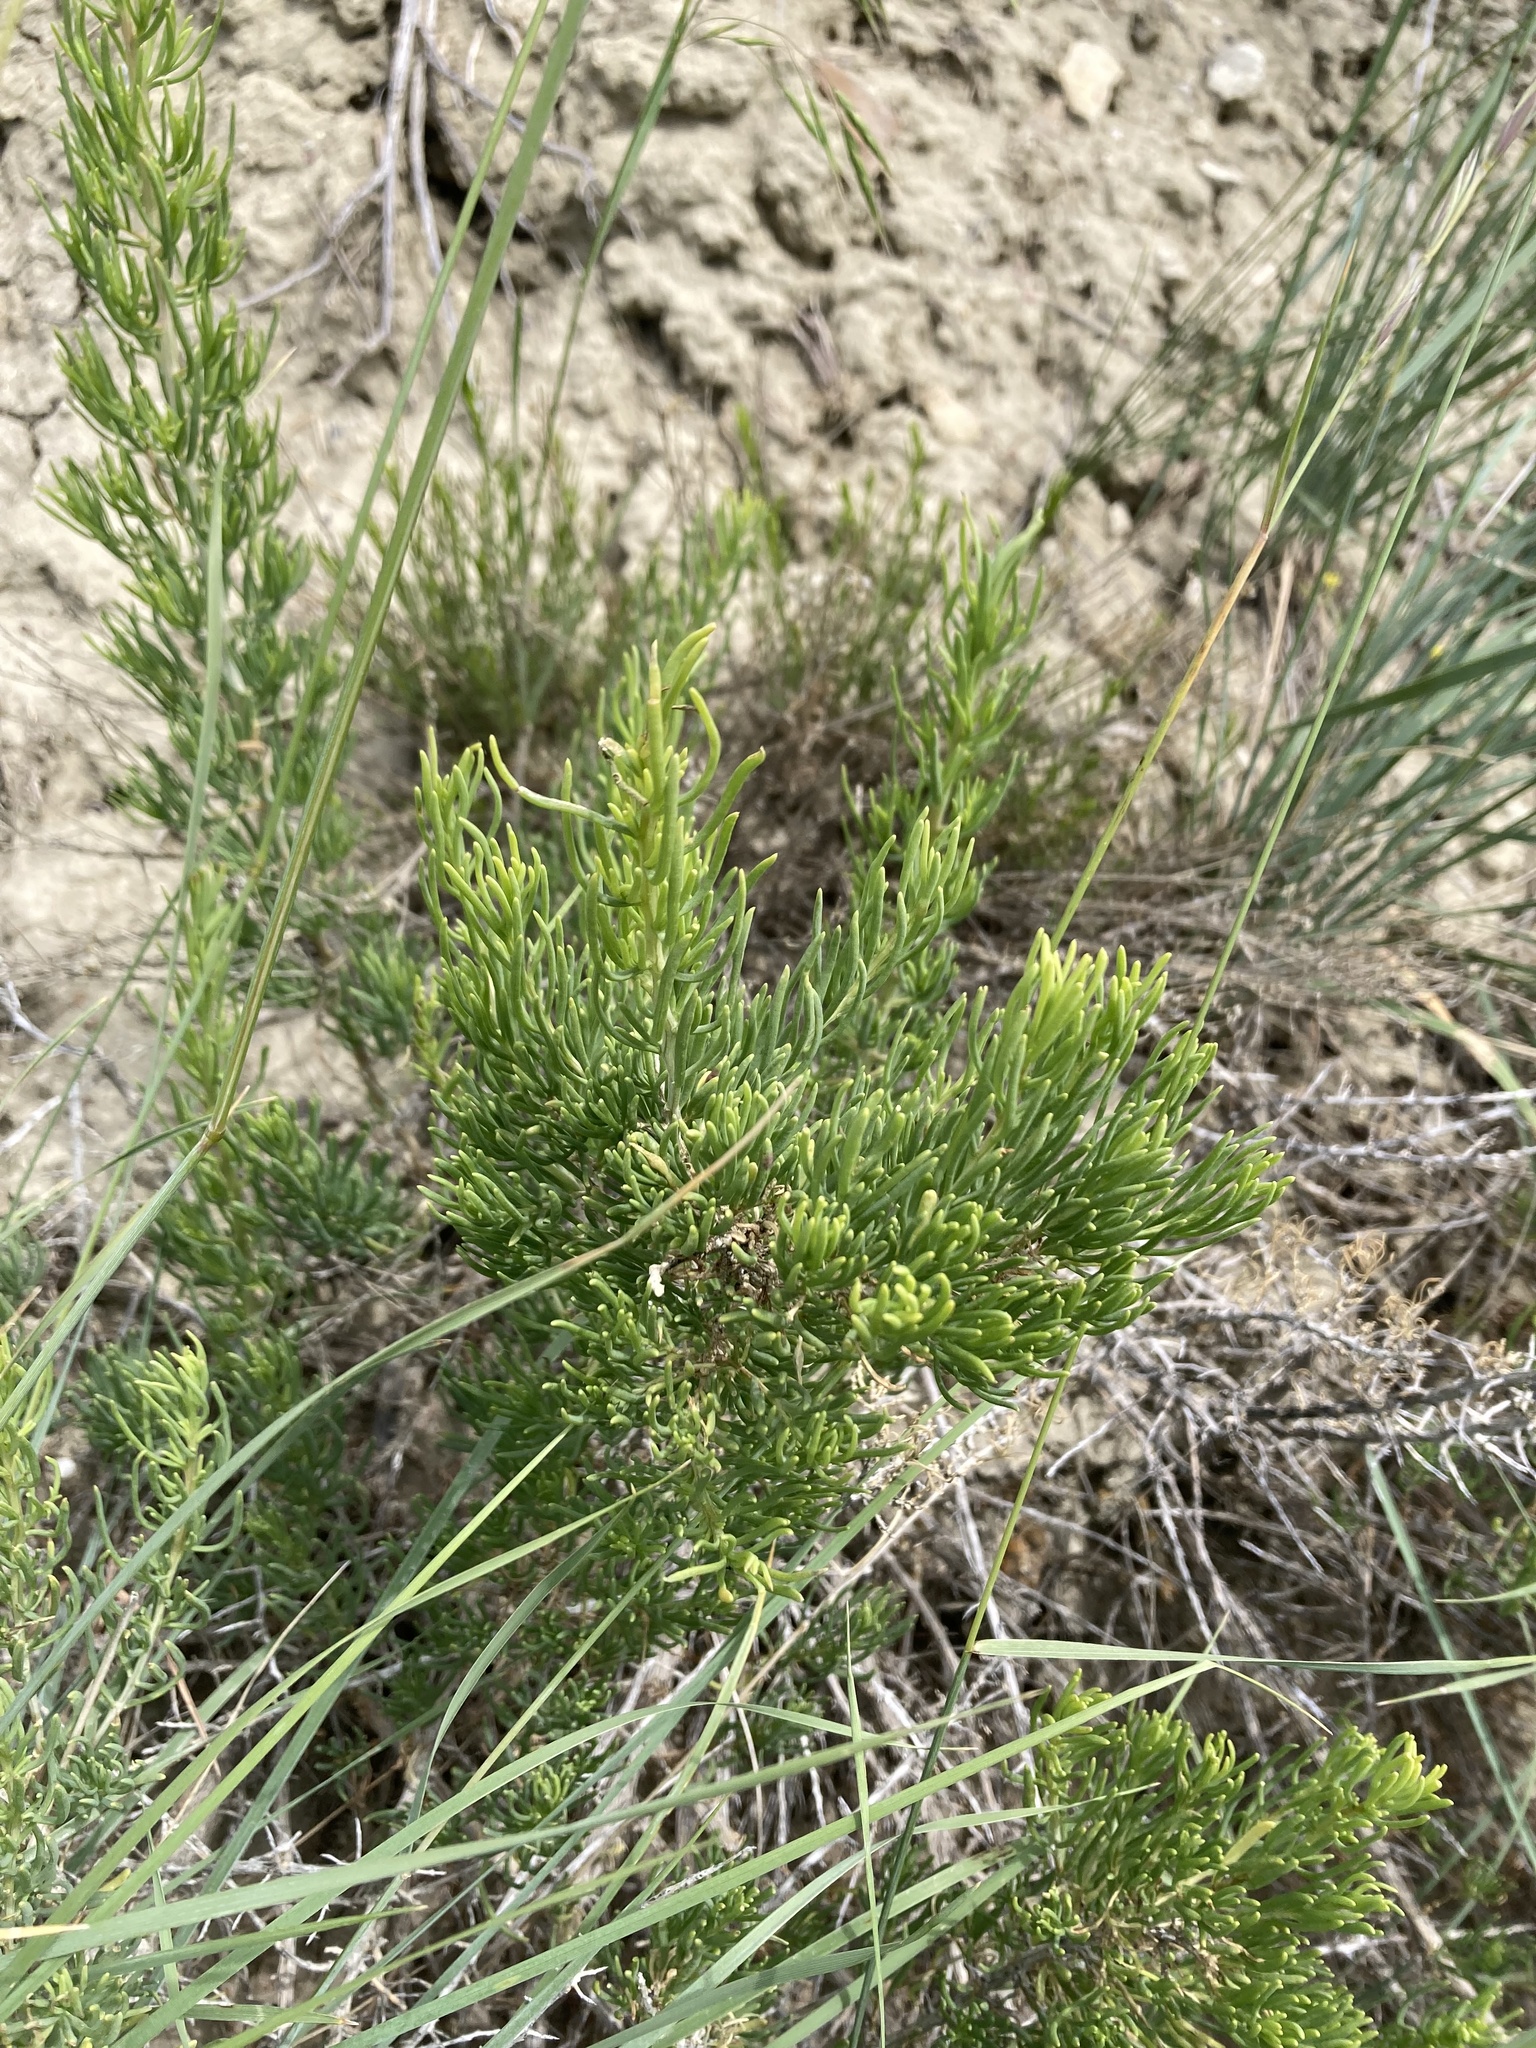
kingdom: Plantae
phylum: Tracheophyta
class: Magnoliopsida
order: Caryophyllales
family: Sarcobataceae
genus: Sarcobatus
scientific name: Sarcobatus vermiculatus
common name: Greasewood
